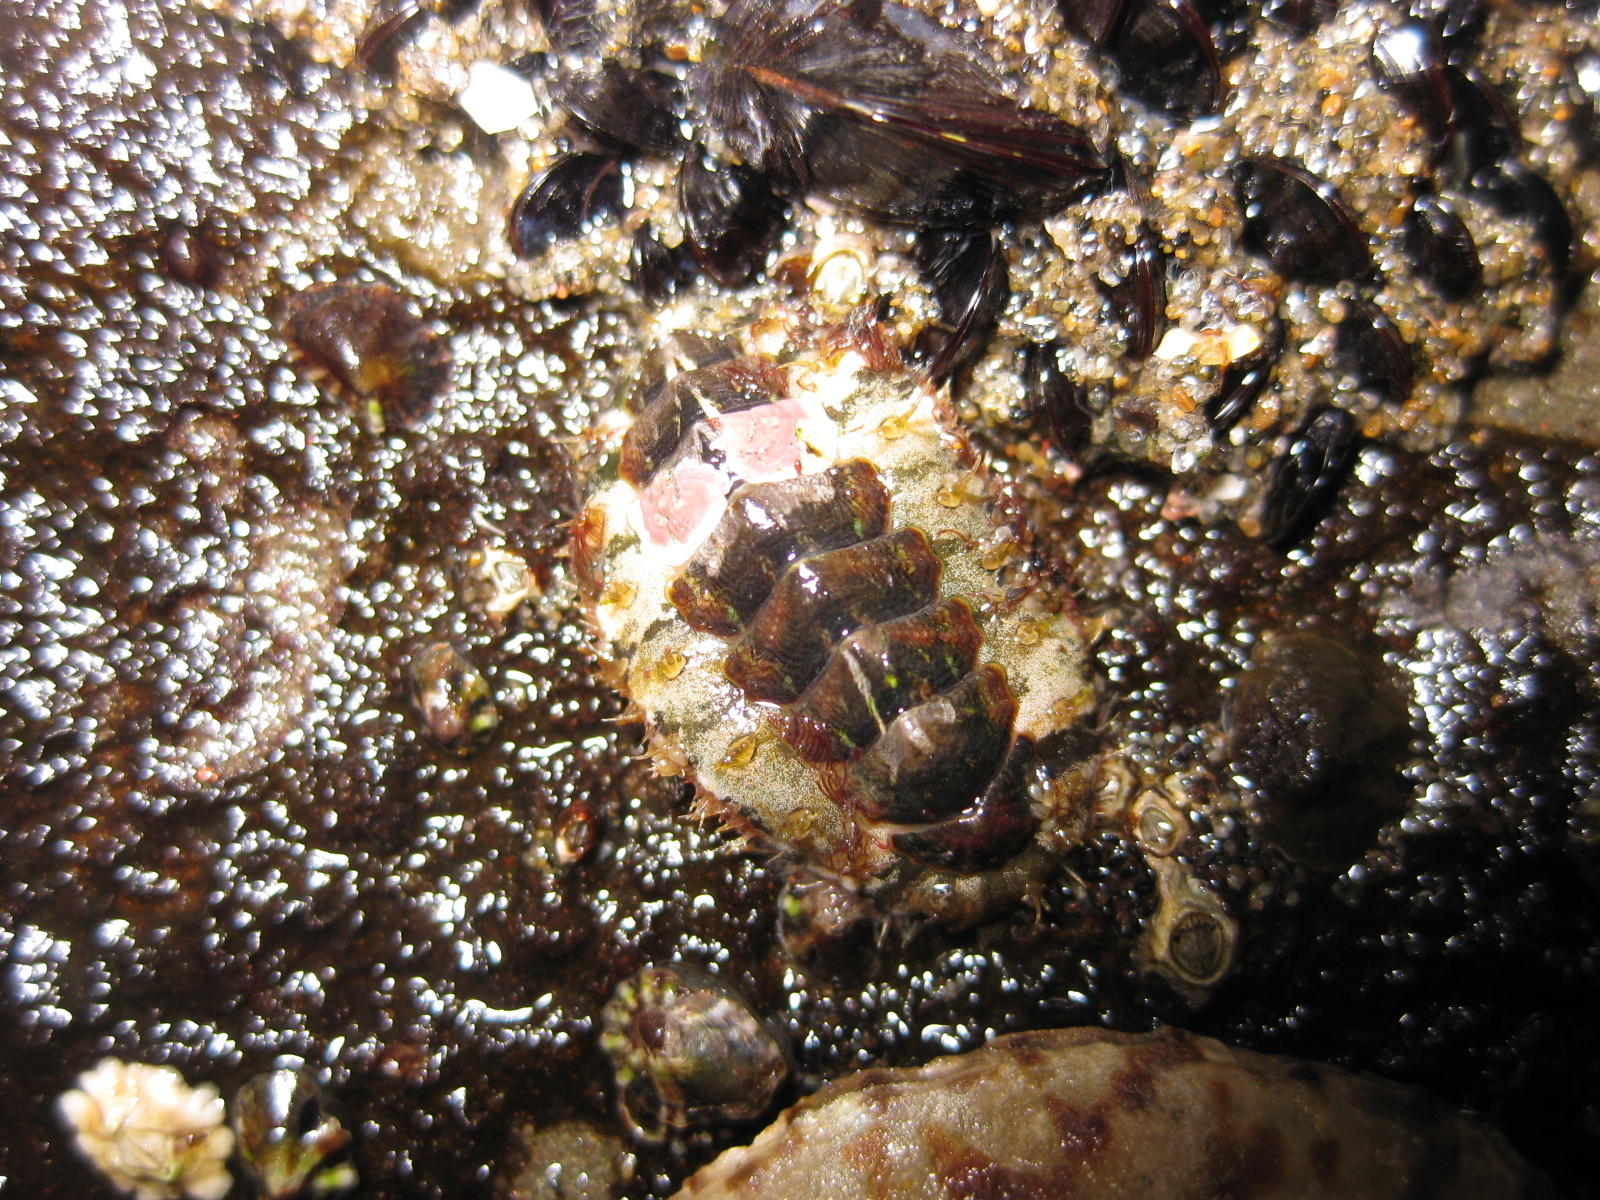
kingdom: Animalia
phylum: Mollusca
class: Polyplacophora
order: Chitonida
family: Mopaliidae
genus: Plaxiphora
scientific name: Plaxiphora caelata
